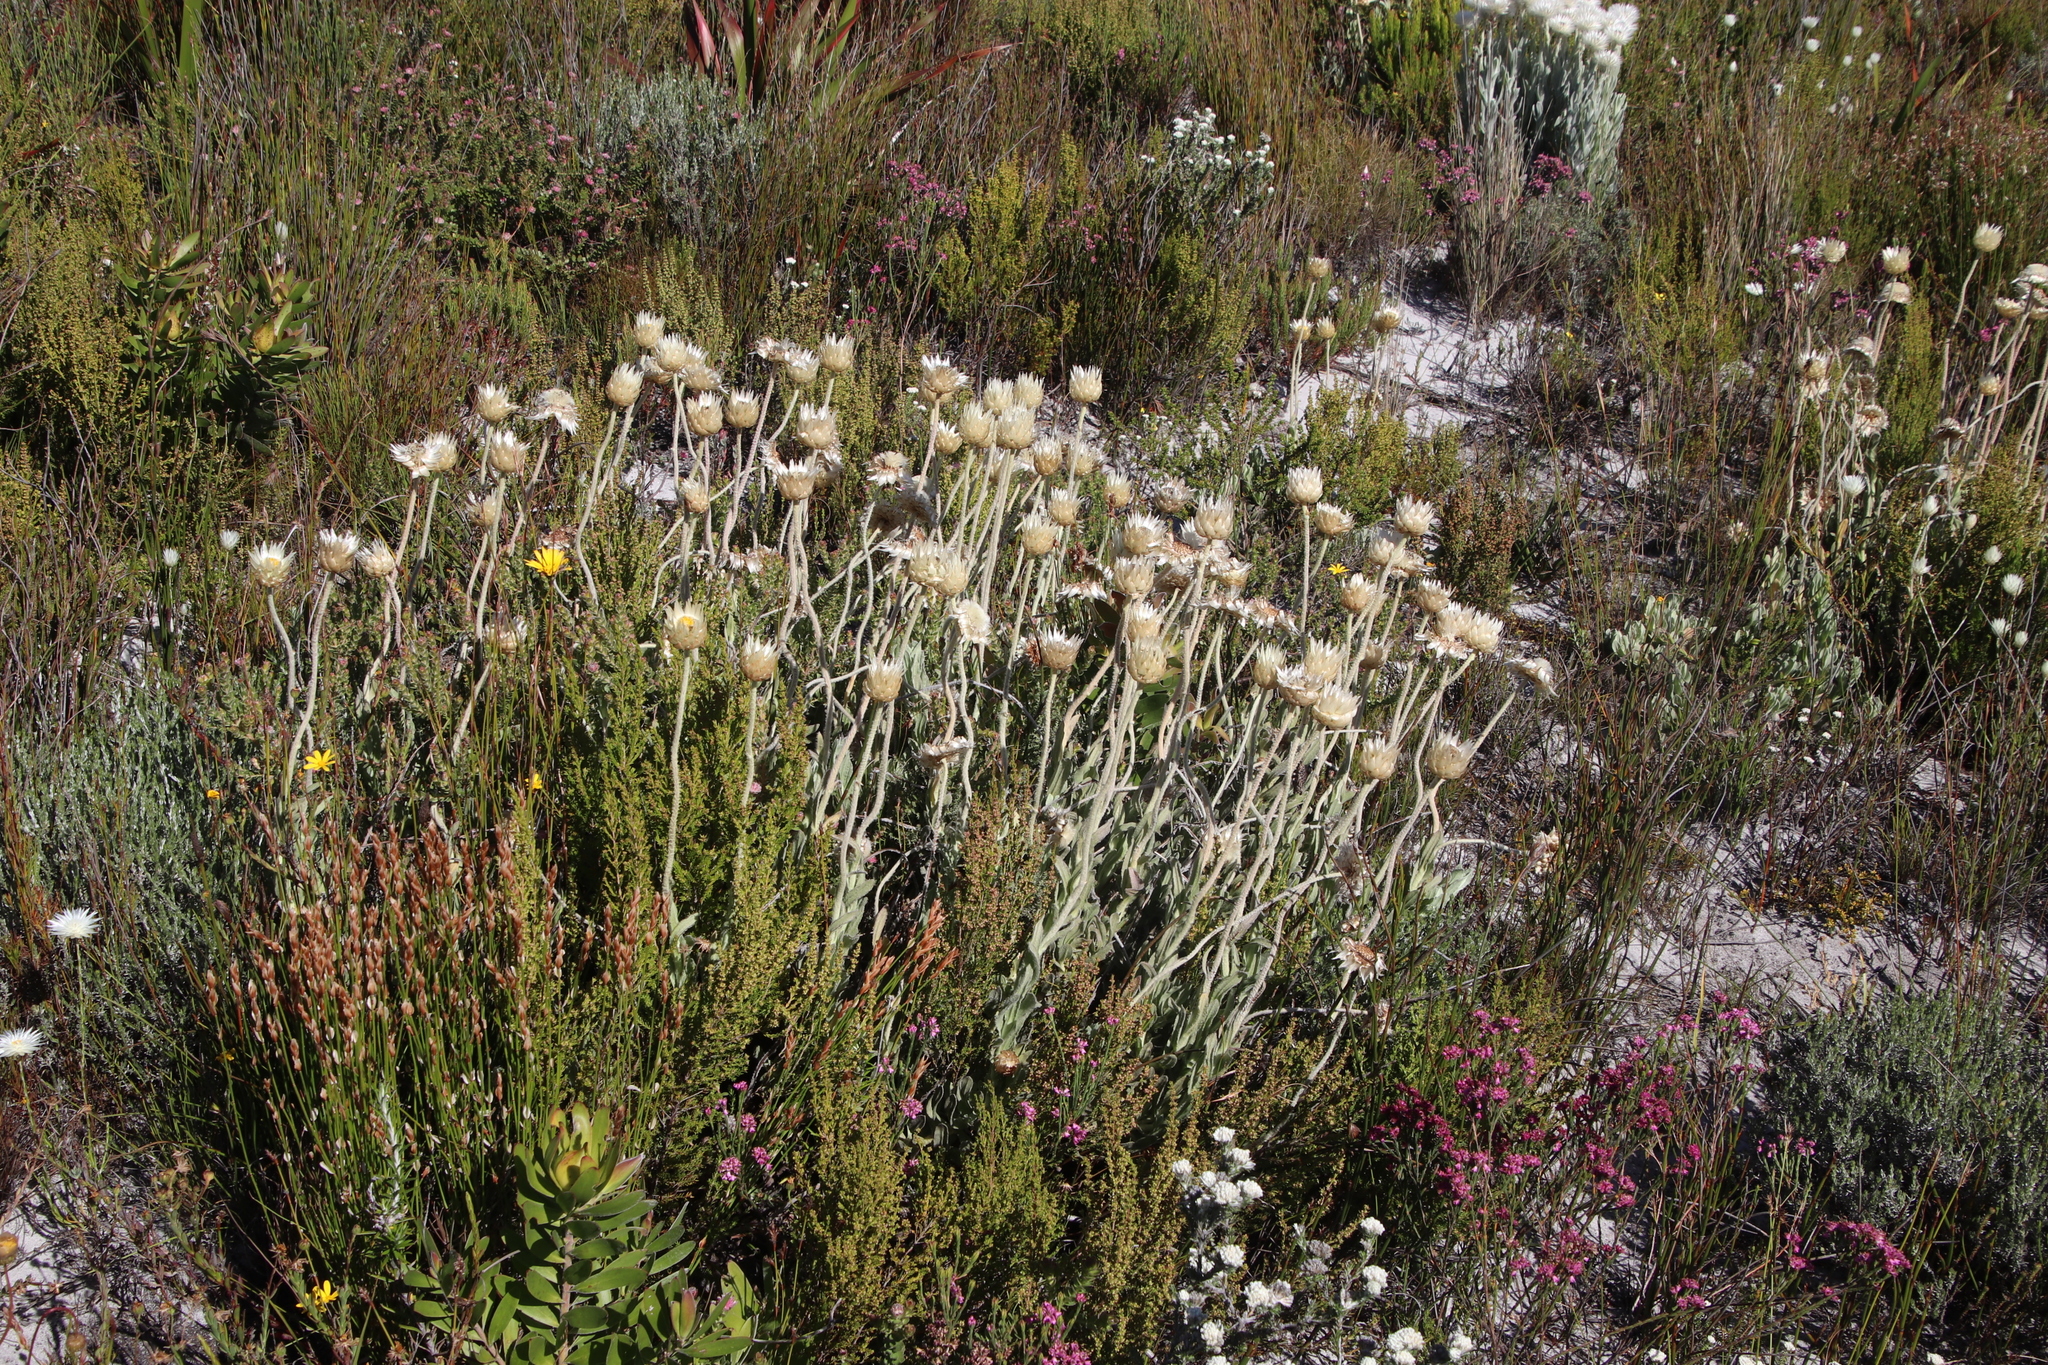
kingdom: Plantae
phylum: Tracheophyta
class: Magnoliopsida
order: Asterales
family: Asteraceae
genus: Syncarpha
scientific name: Syncarpha speciosissima
